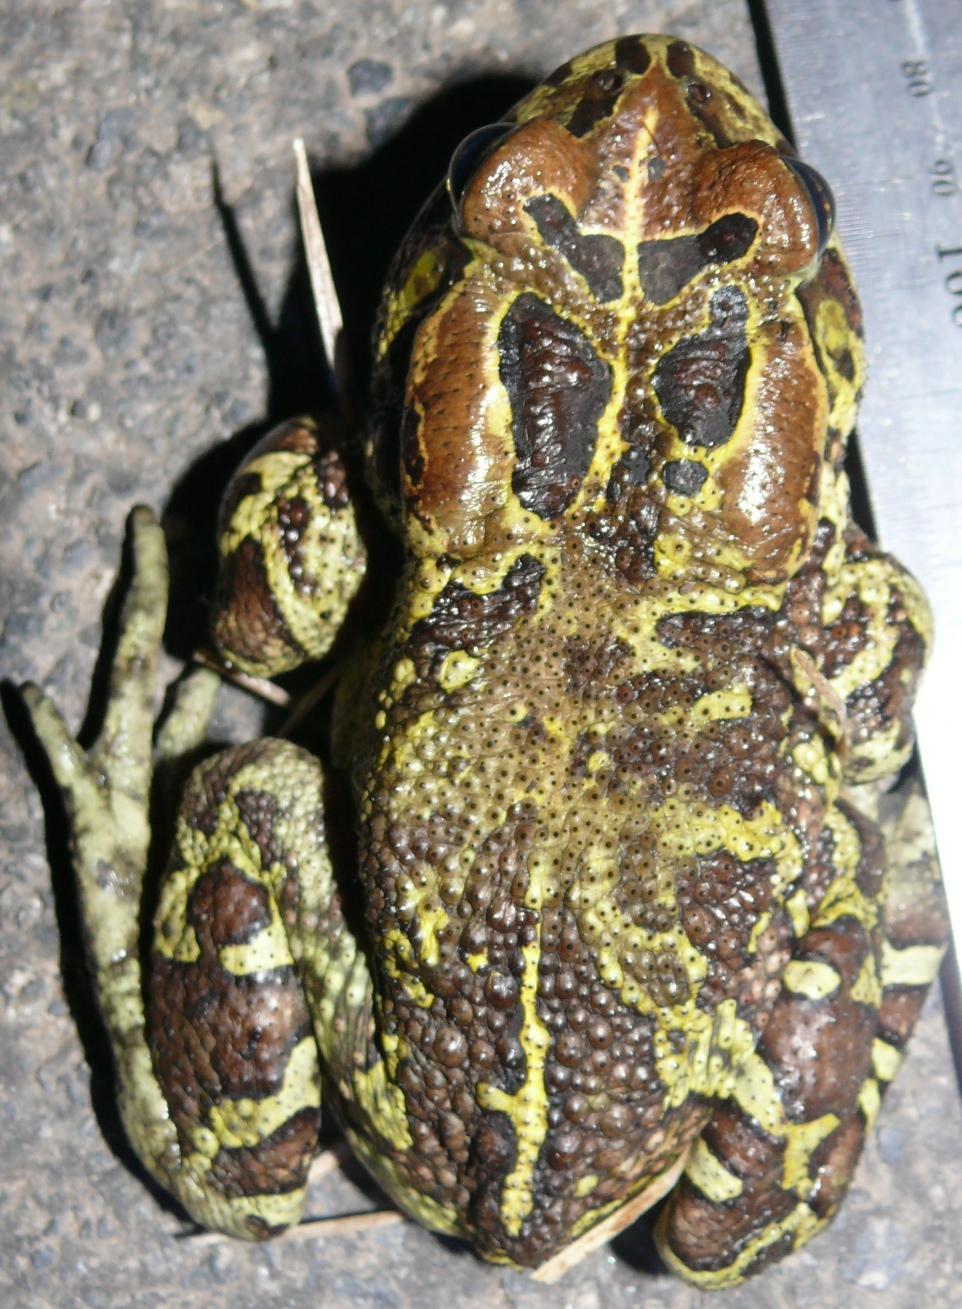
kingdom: Animalia
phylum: Chordata
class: Amphibia
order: Anura
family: Bufonidae
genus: Sclerophrys
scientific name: Sclerophrys pantherina
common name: Panther toad
